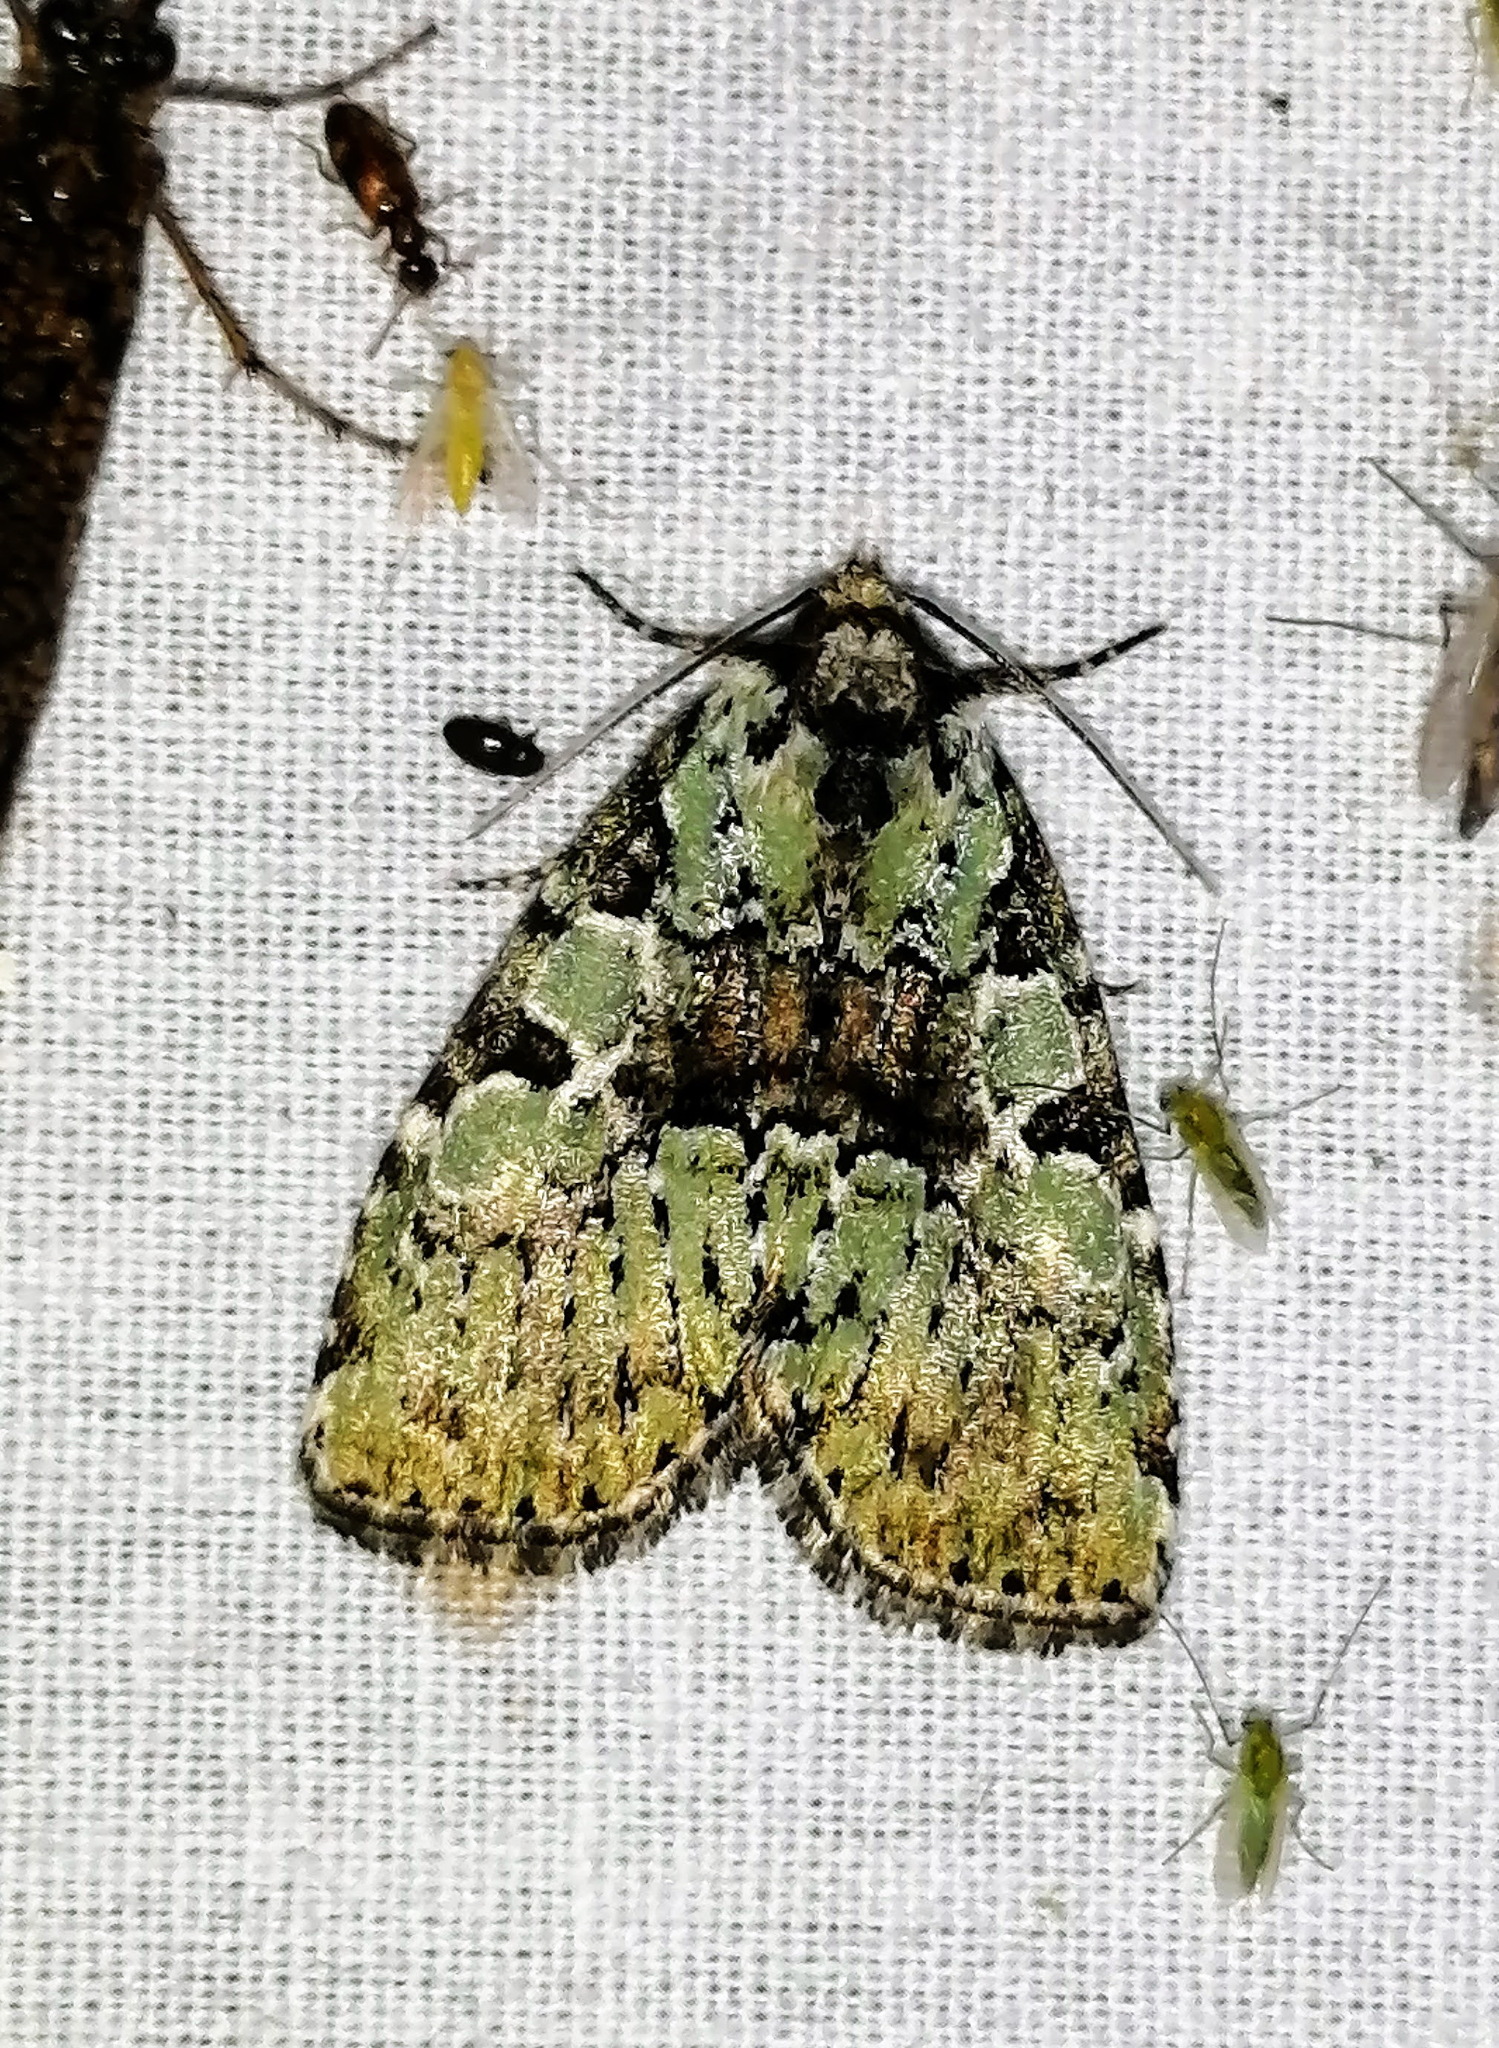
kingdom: Animalia
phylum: Arthropoda
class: Insecta
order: Lepidoptera
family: Noctuidae
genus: Leuconycta
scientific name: Leuconycta lepidula
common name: Marbled-green leuconycta moth
